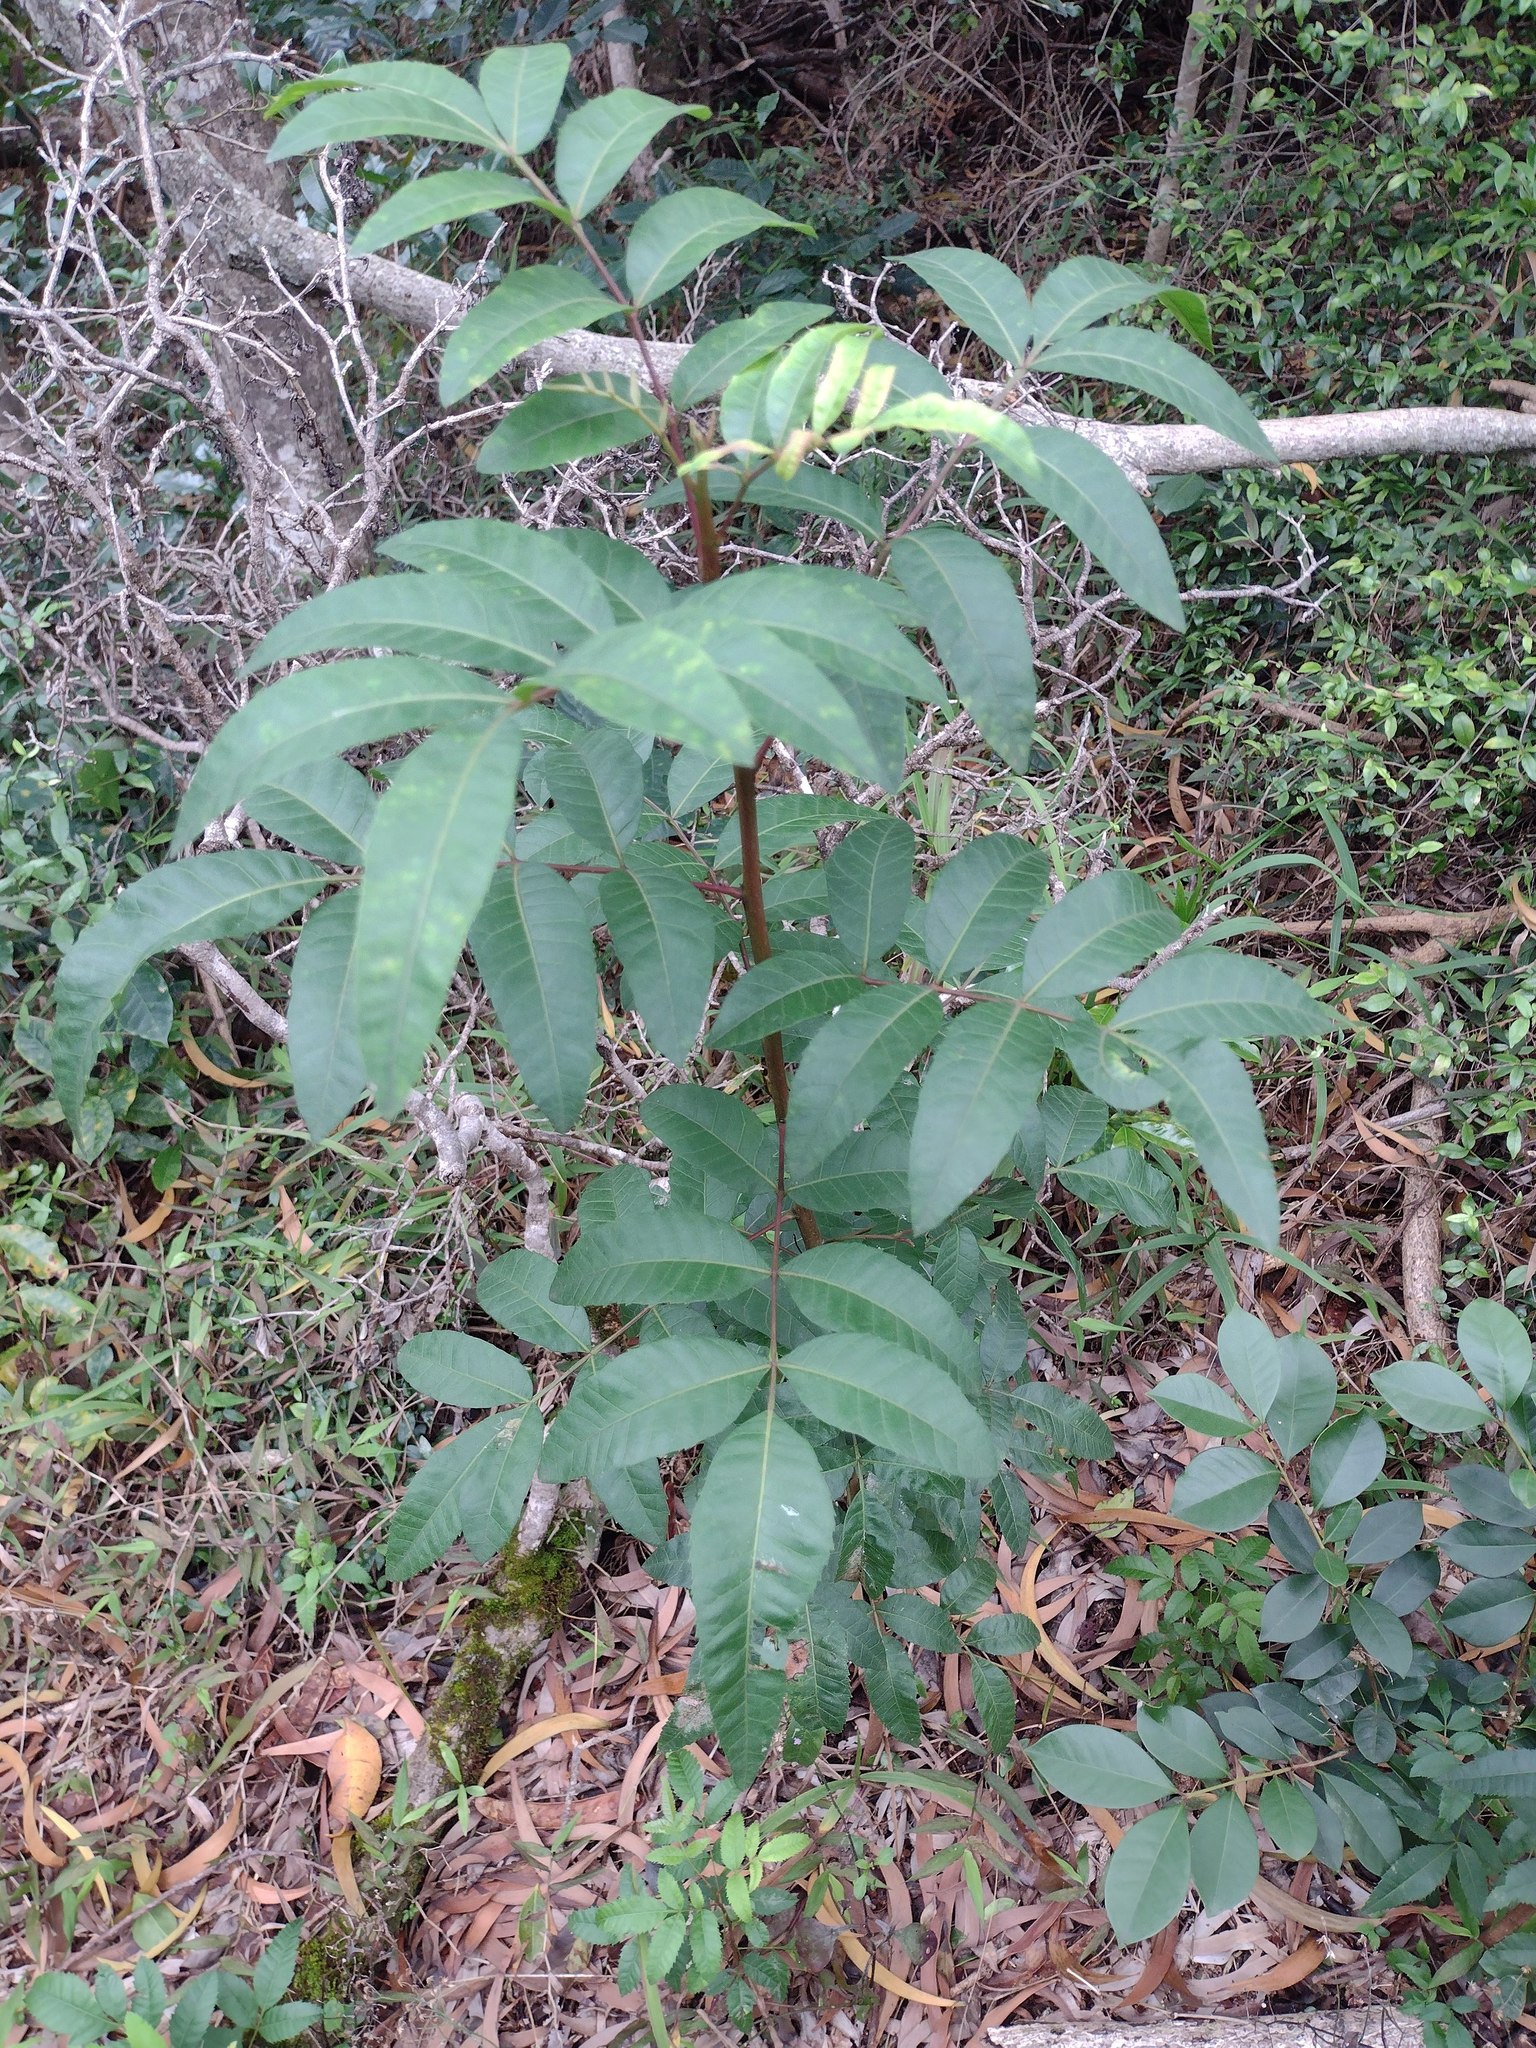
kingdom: Plantae
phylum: Tracheophyta
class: Magnoliopsida
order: Sapindales
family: Anacardiaceae
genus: Schinus
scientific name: Schinus terebinthifolia
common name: Brazilian peppertree
